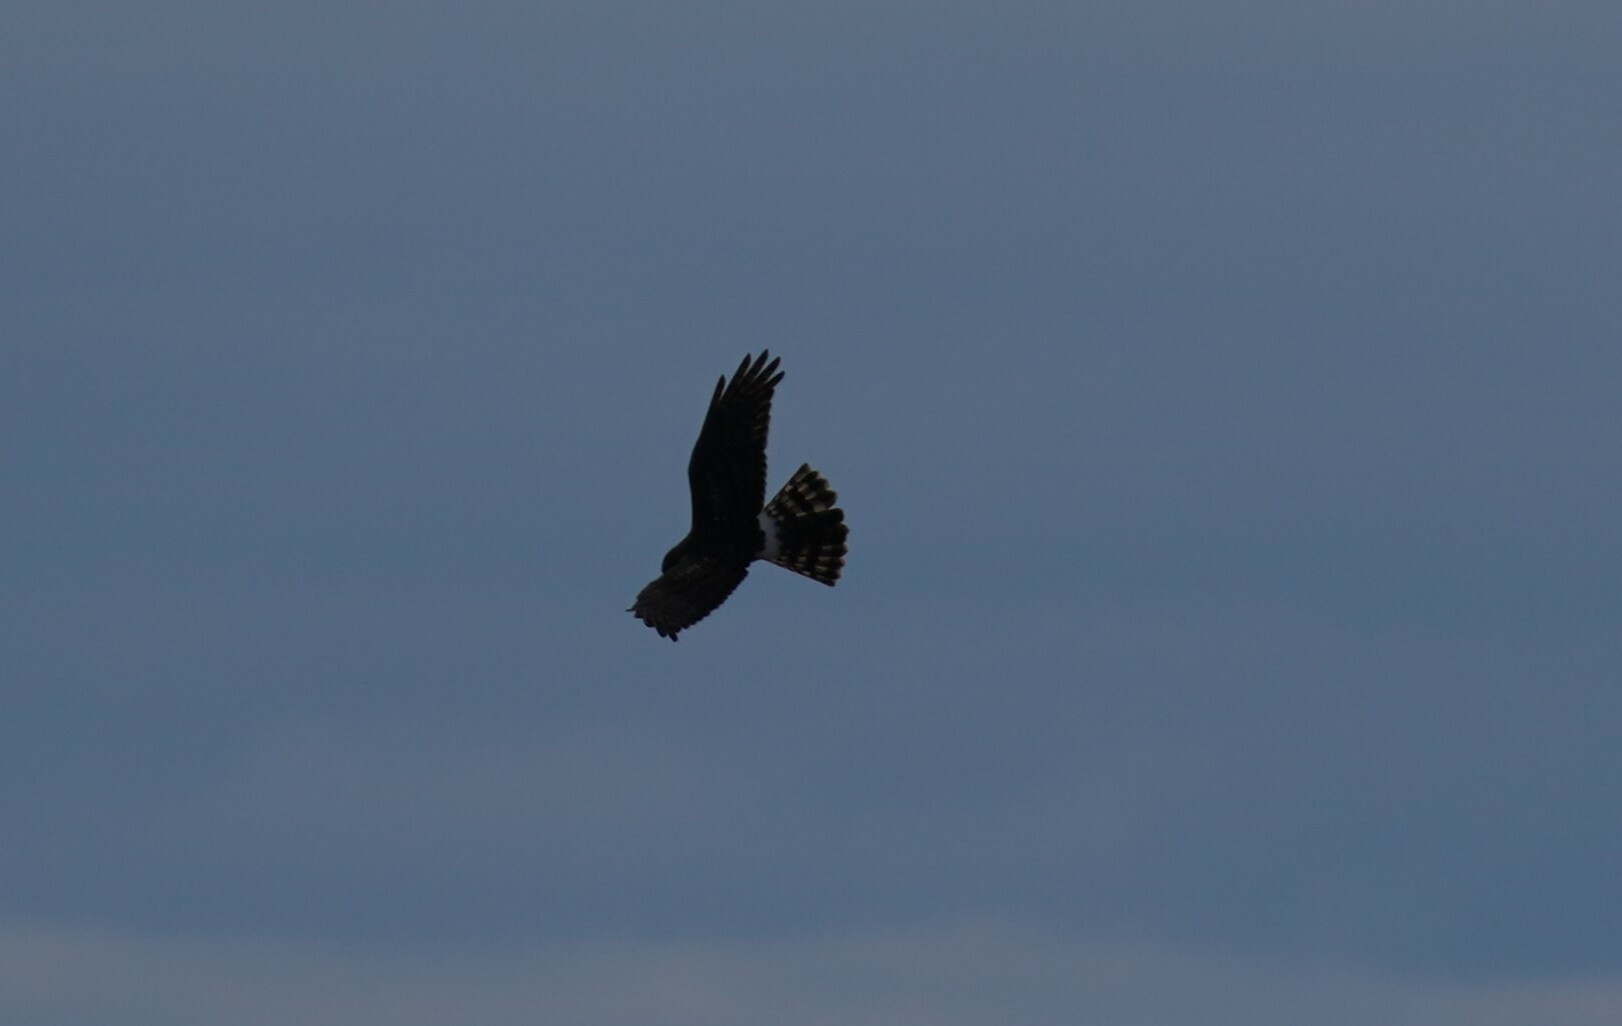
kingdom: Animalia
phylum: Chordata
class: Aves
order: Accipitriformes
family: Accipitridae
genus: Circus
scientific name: Circus cyaneus
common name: Hen harrier
